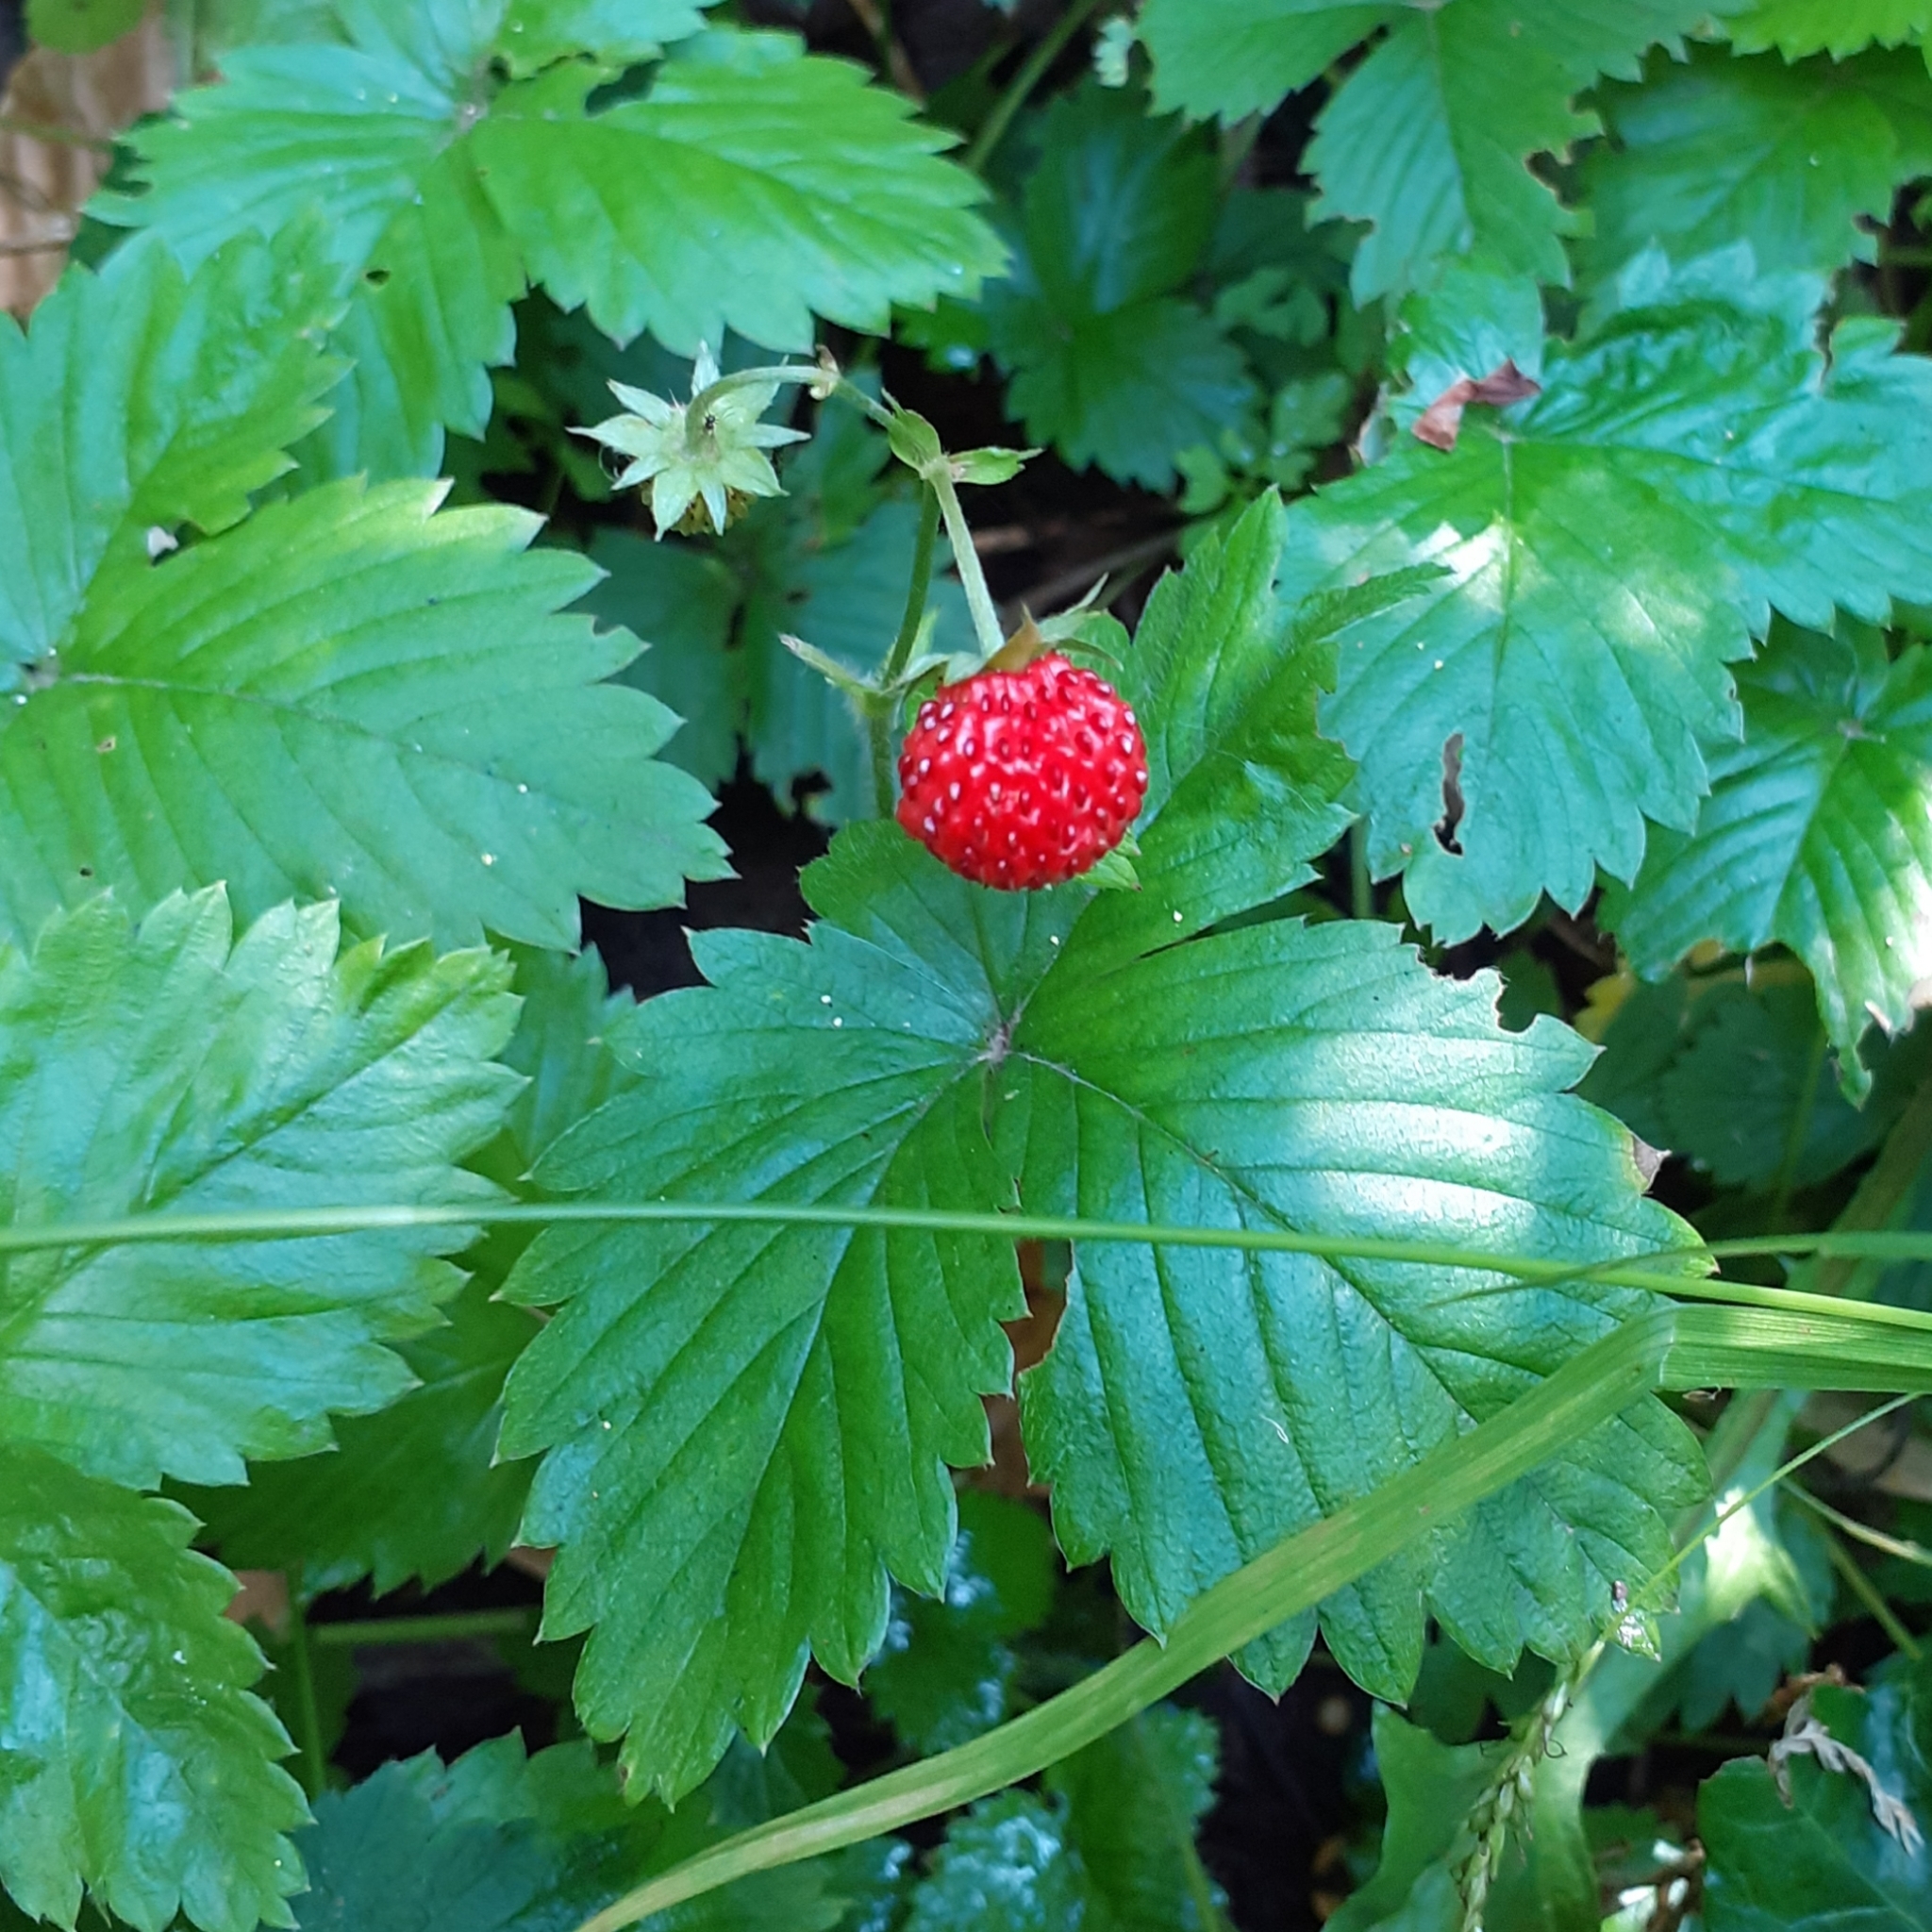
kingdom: Plantae
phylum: Tracheophyta
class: Magnoliopsida
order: Rosales
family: Rosaceae
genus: Fragaria
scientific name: Fragaria vesca
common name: Wild strawberry
